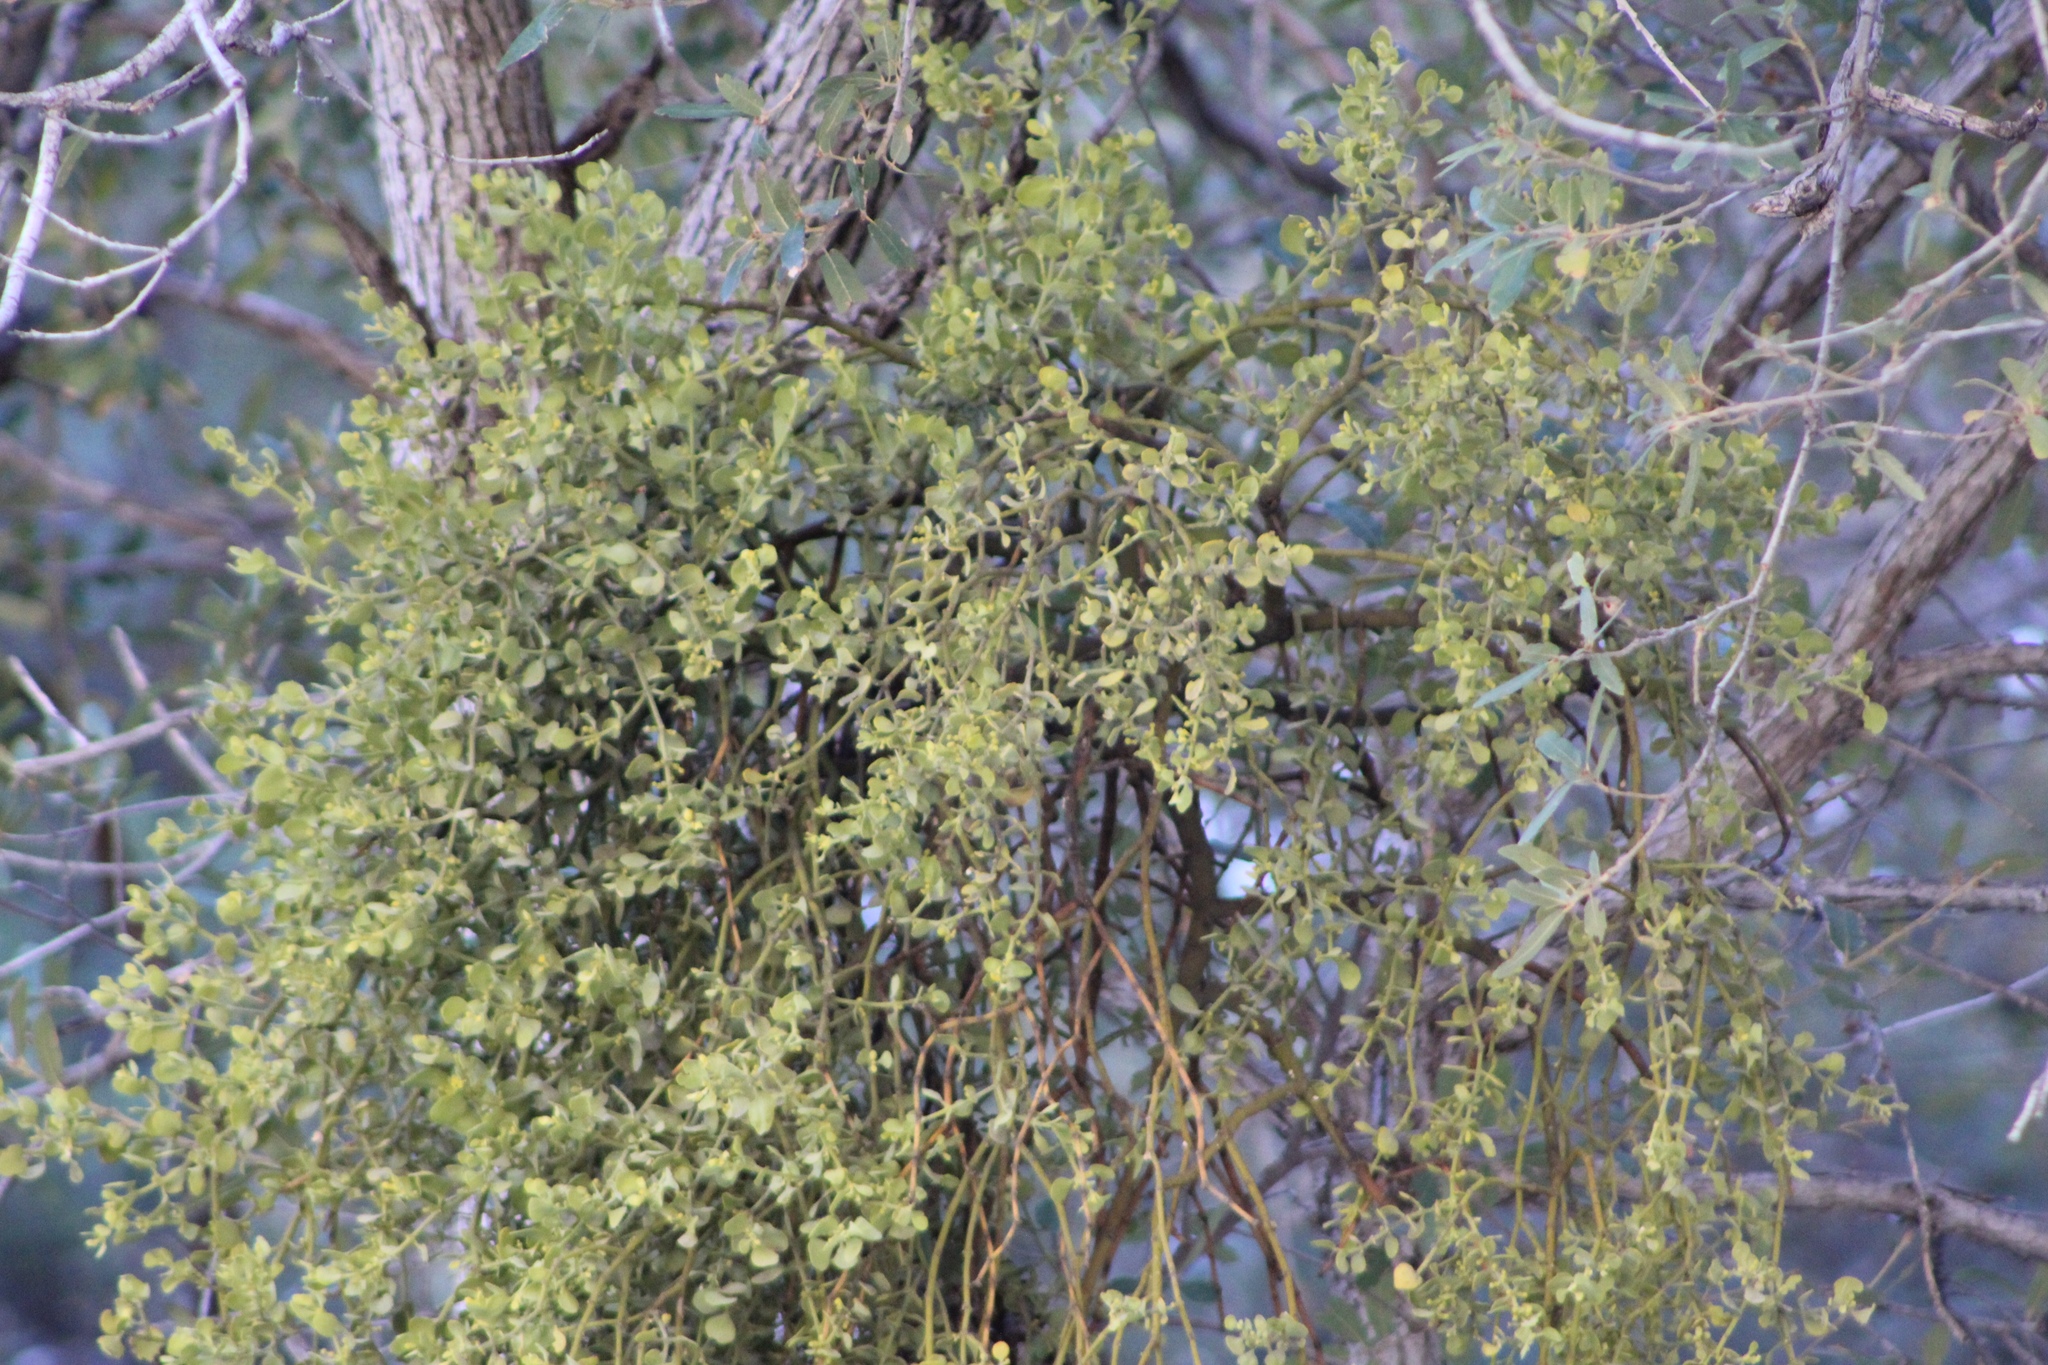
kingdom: Plantae
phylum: Tracheophyta
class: Magnoliopsida
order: Santalales
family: Viscaceae
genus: Phoradendron
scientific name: Phoradendron coryae
